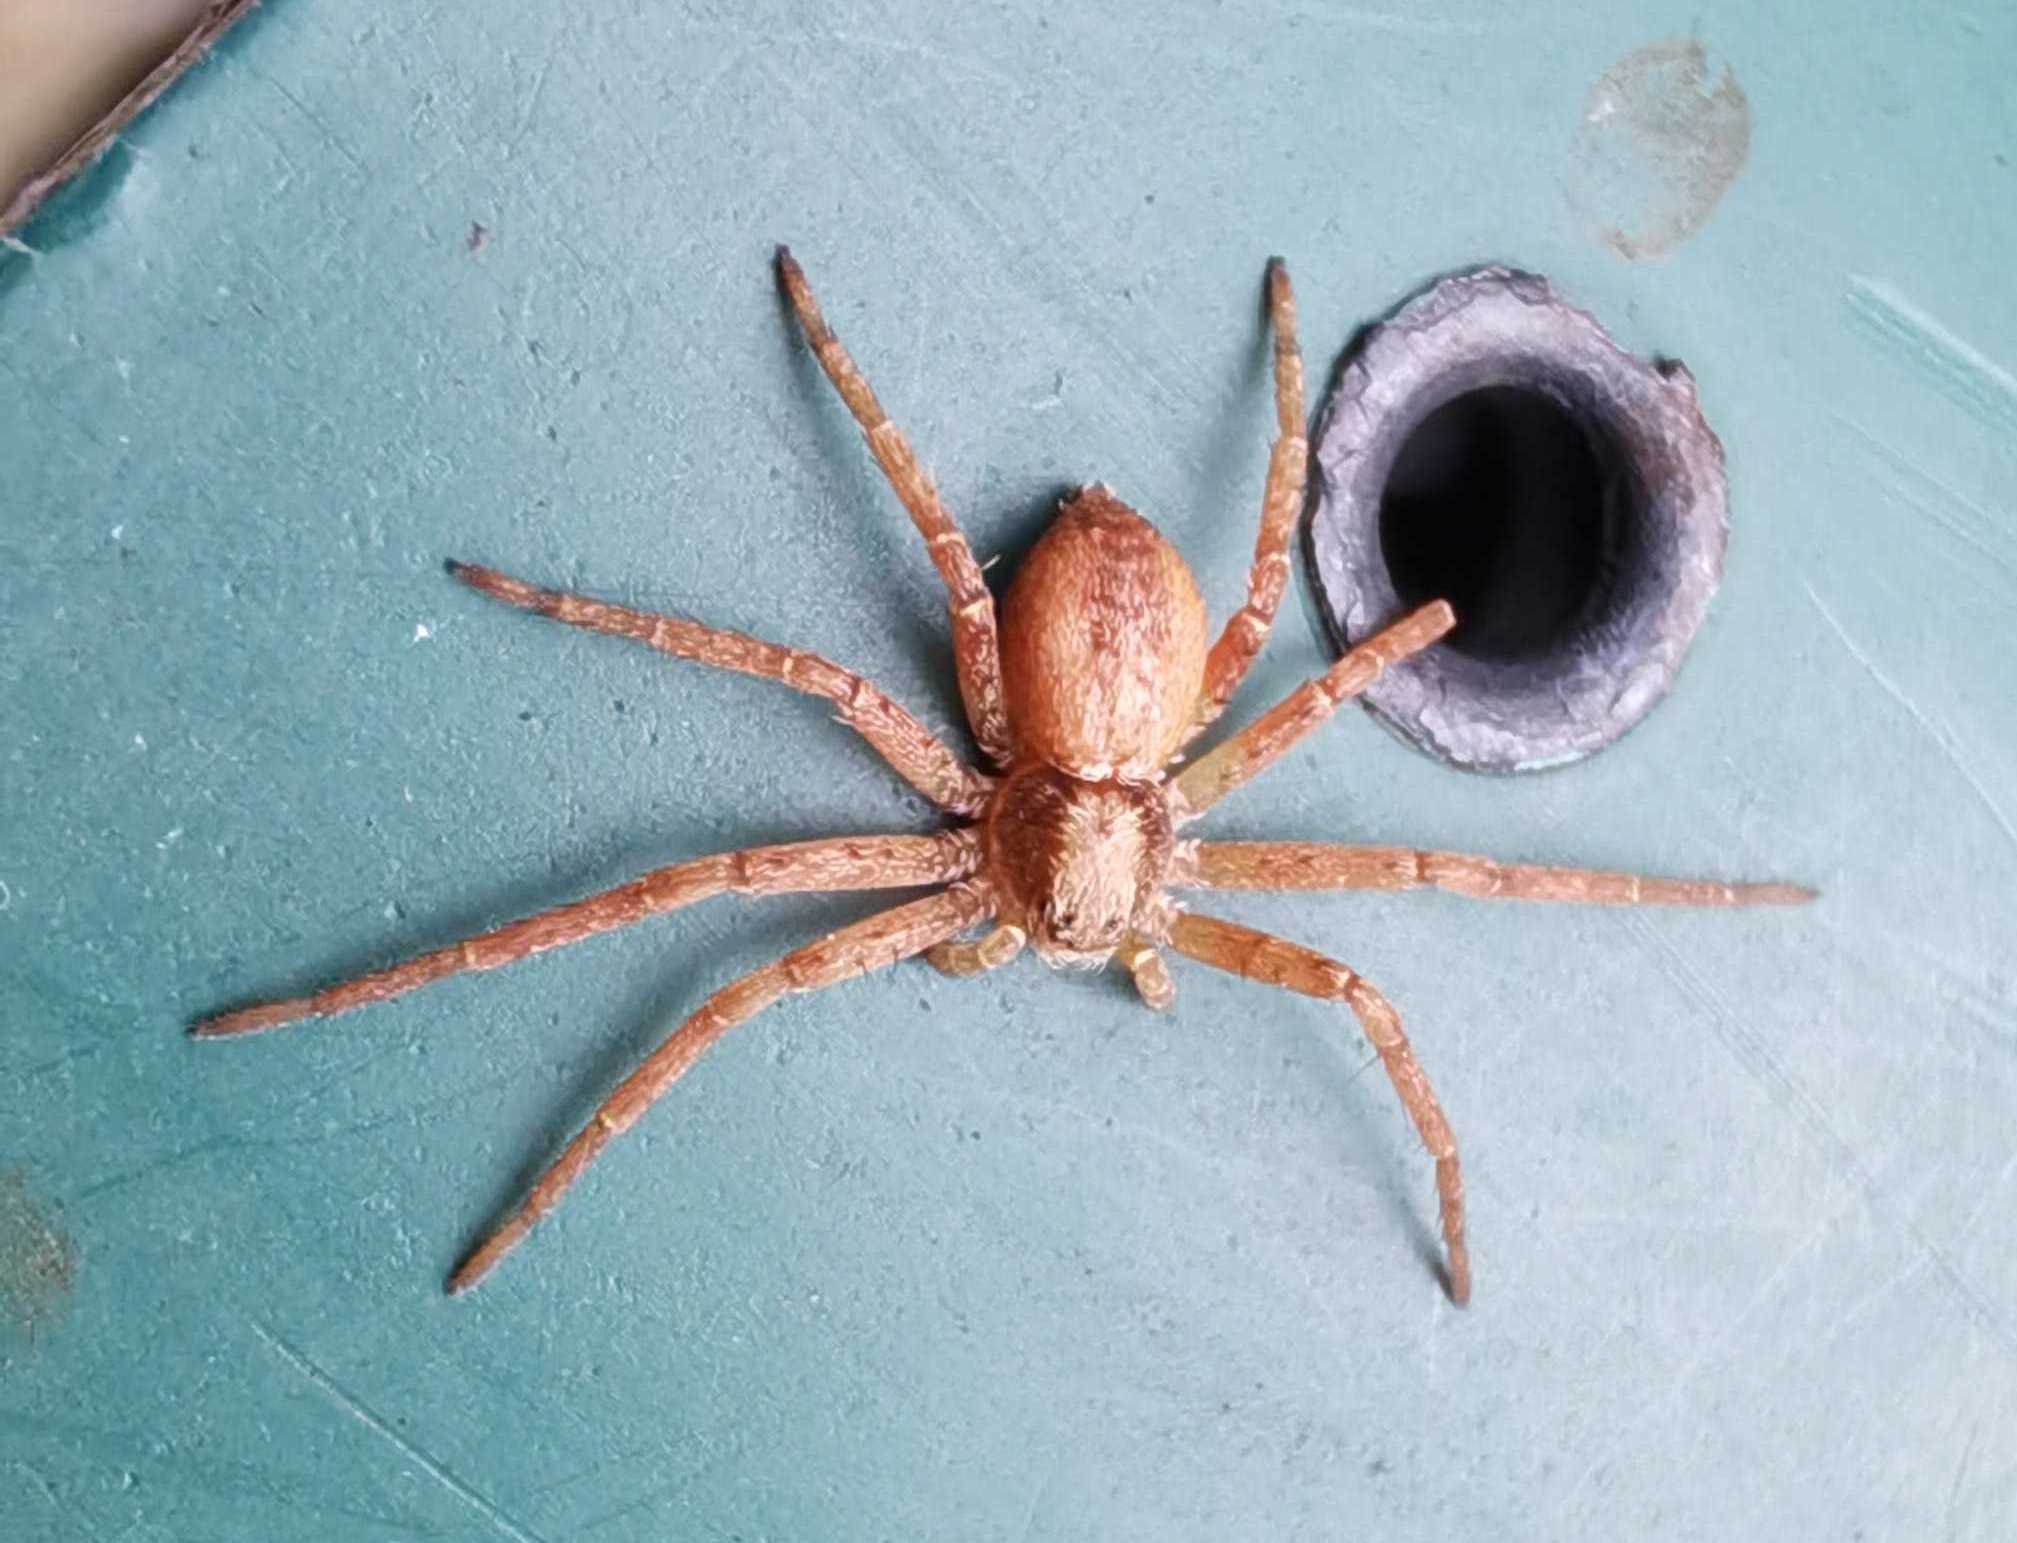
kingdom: Animalia
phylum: Arthropoda
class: Arachnida
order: Araneae
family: Philodromidae
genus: Philodromus
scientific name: Philodromus
